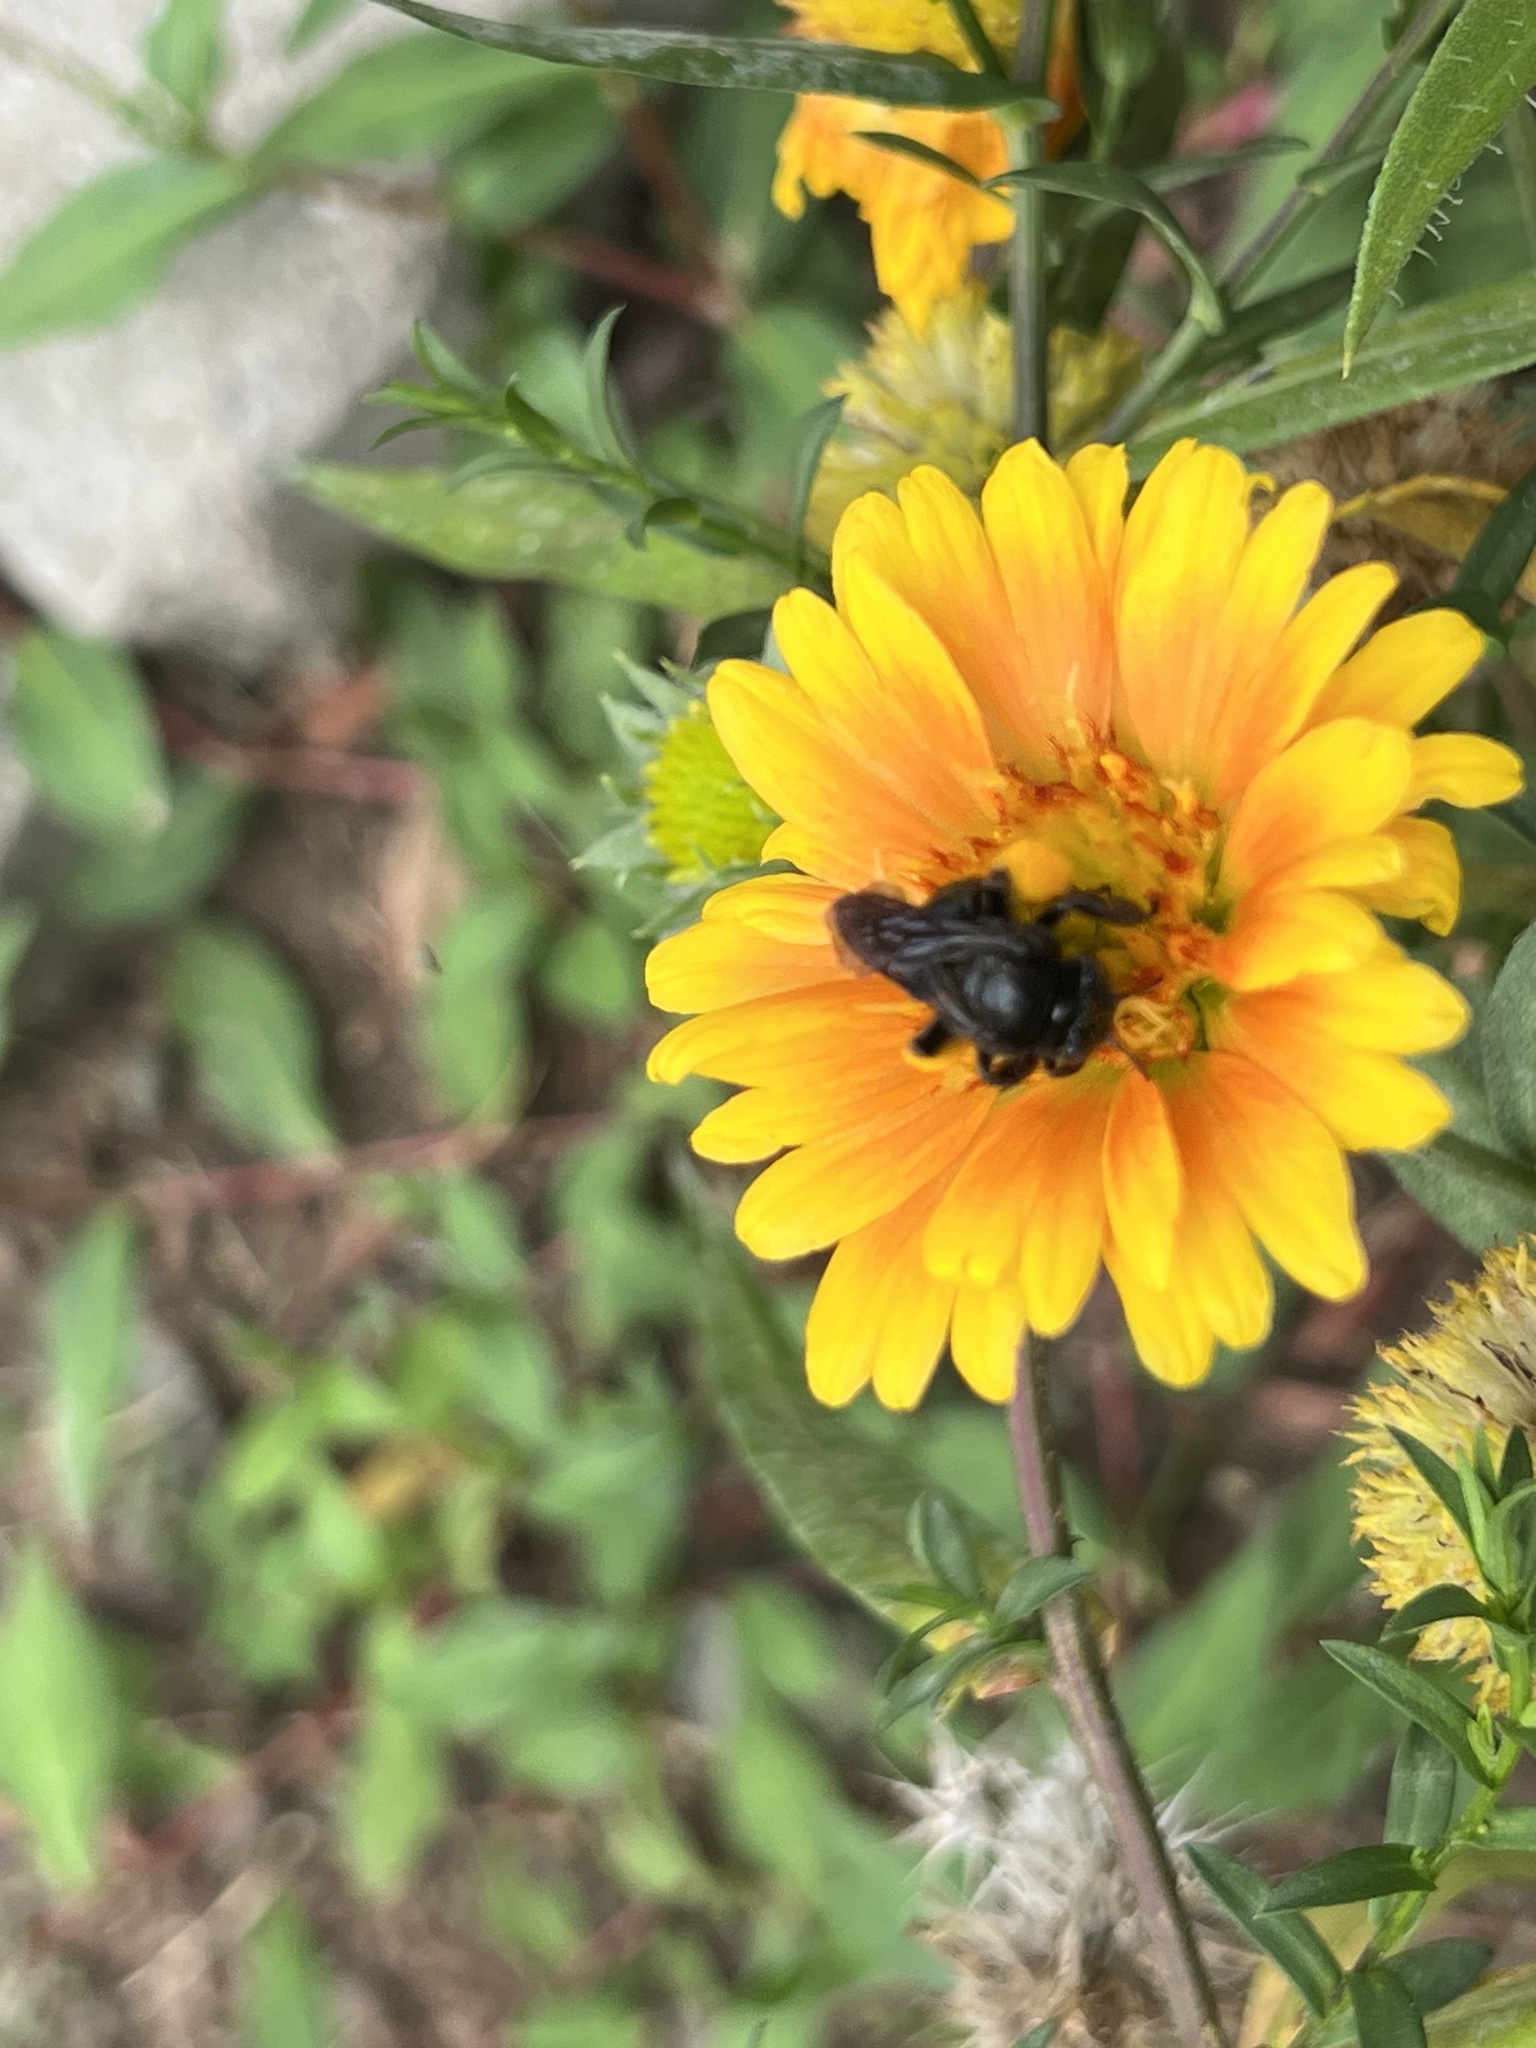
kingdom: Animalia
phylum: Arthropoda
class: Insecta
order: Hymenoptera
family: Apidae
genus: Melissodes
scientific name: Melissodes bimaculatus
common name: Two-spotted long-horned bee
